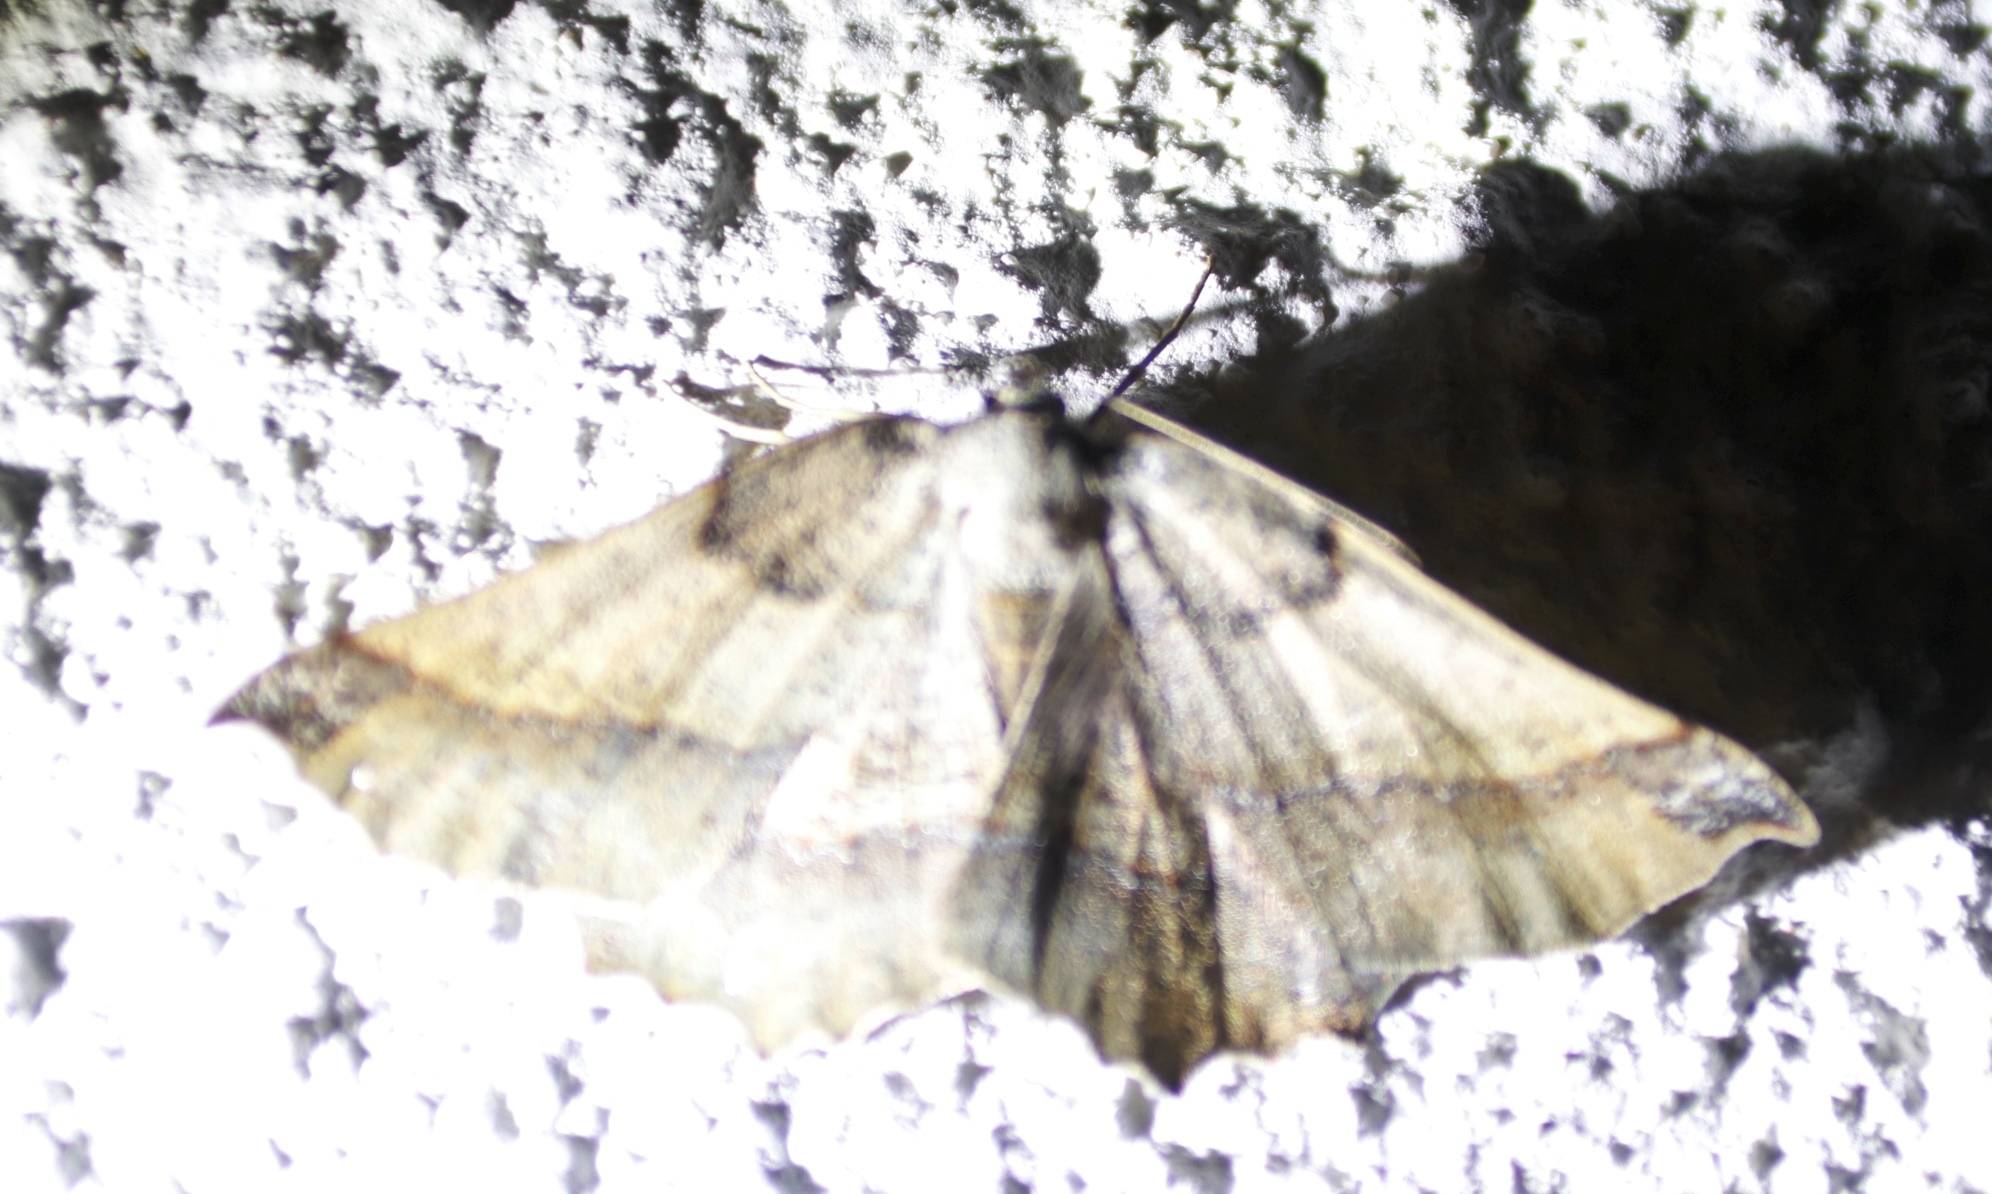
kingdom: Animalia
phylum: Arthropoda
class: Insecta
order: Lepidoptera
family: Geometridae
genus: Drepanogynis
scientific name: Drepanogynis mixtaria
